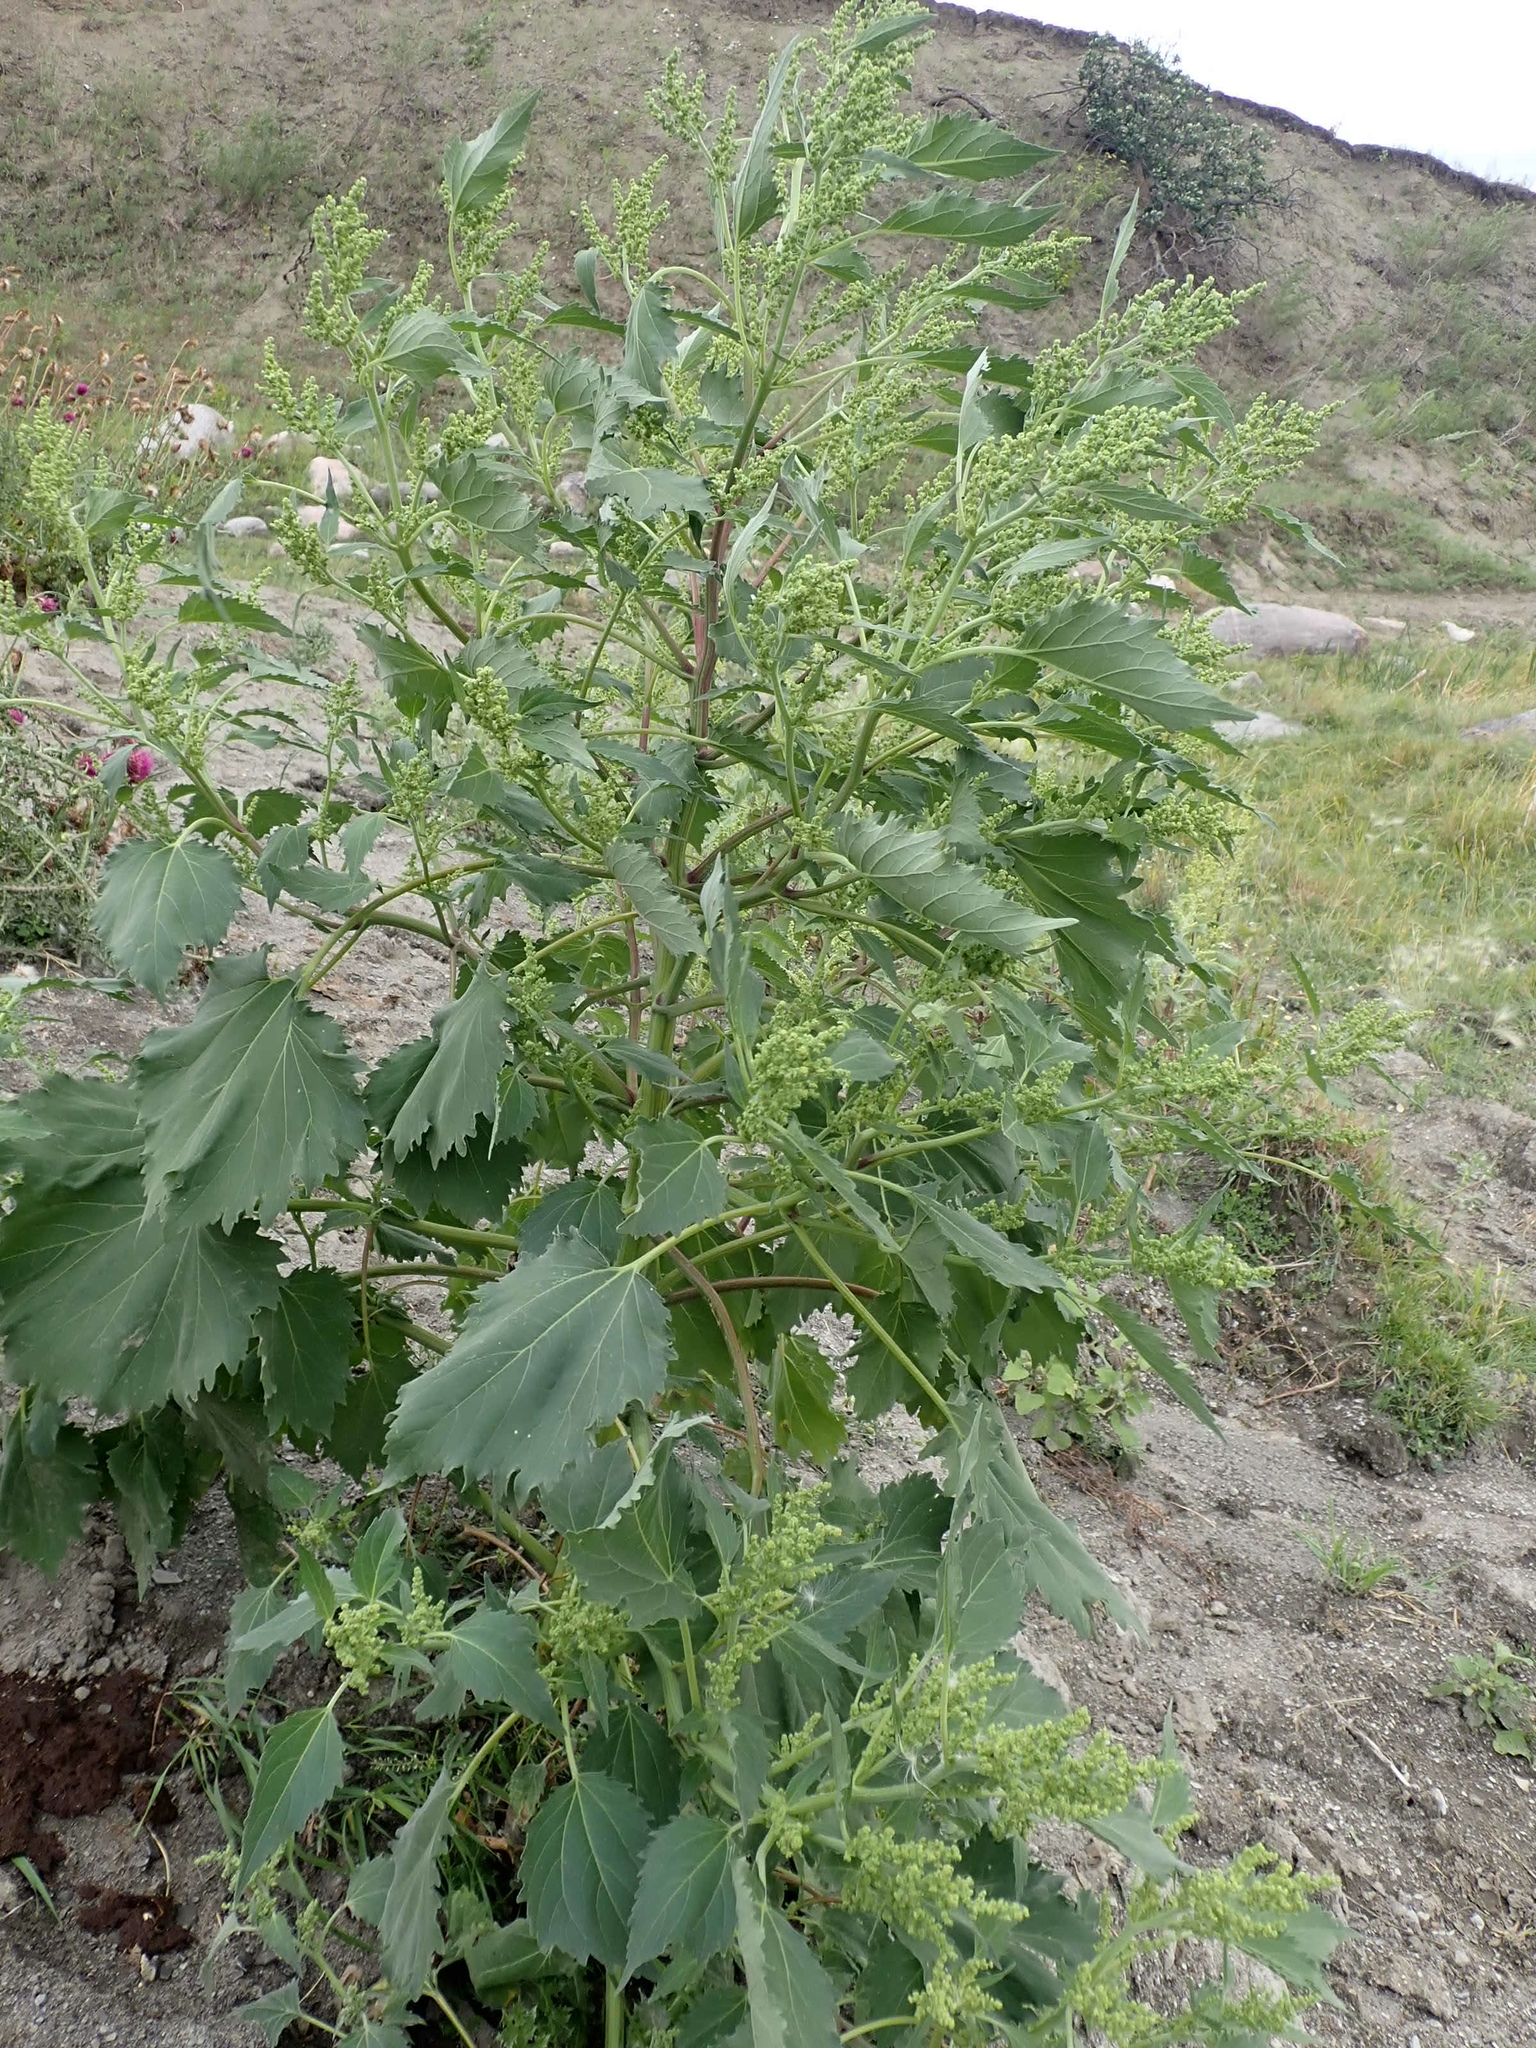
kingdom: Plantae
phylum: Tracheophyta
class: Magnoliopsida
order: Asterales
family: Asteraceae
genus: Cyclachaena
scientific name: Cyclachaena xanthiifolia
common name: Giant sumpweed
